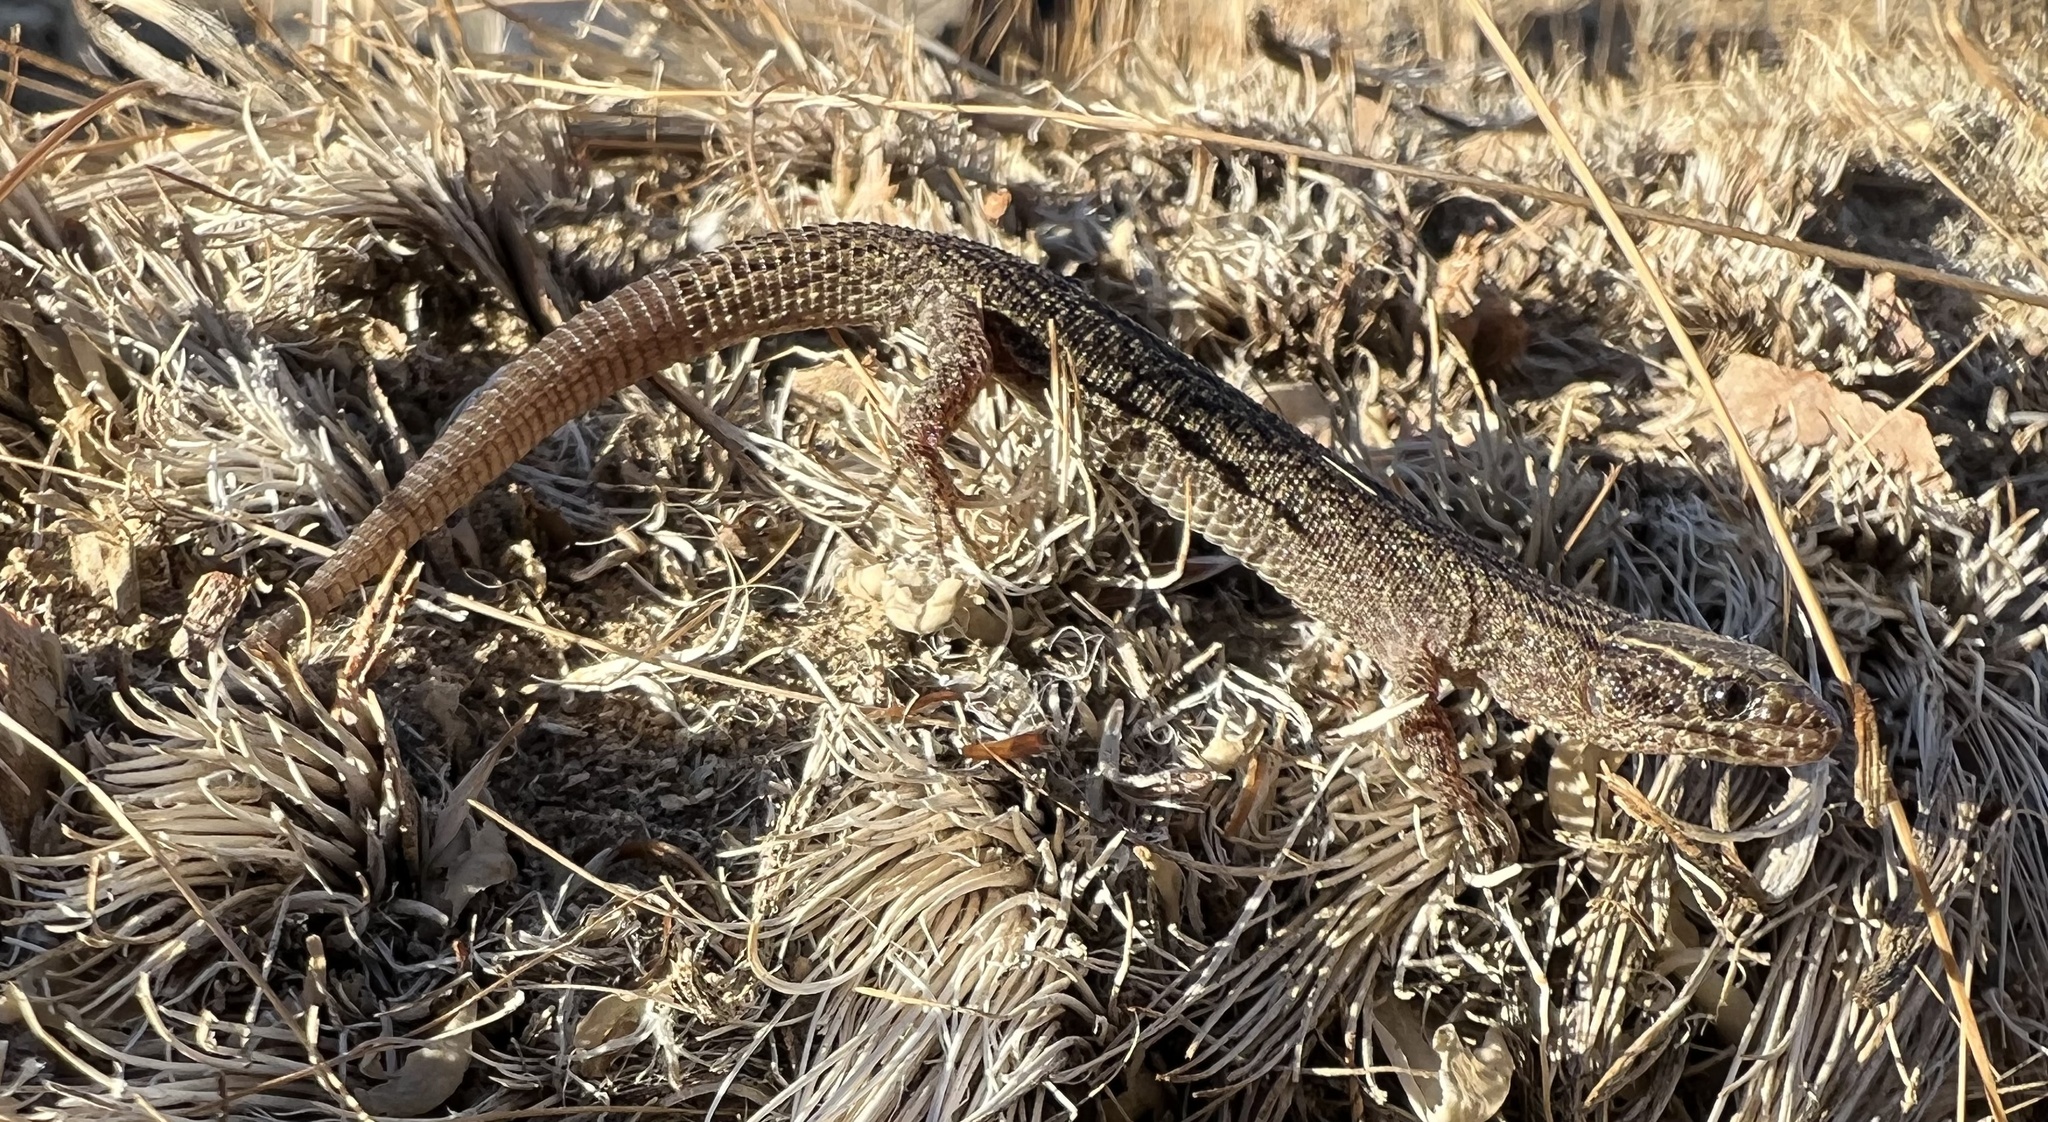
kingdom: Animalia
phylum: Chordata
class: Squamata
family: Xantusiidae
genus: Xantusia
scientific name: Xantusia vigilis
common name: Desert night lizard
